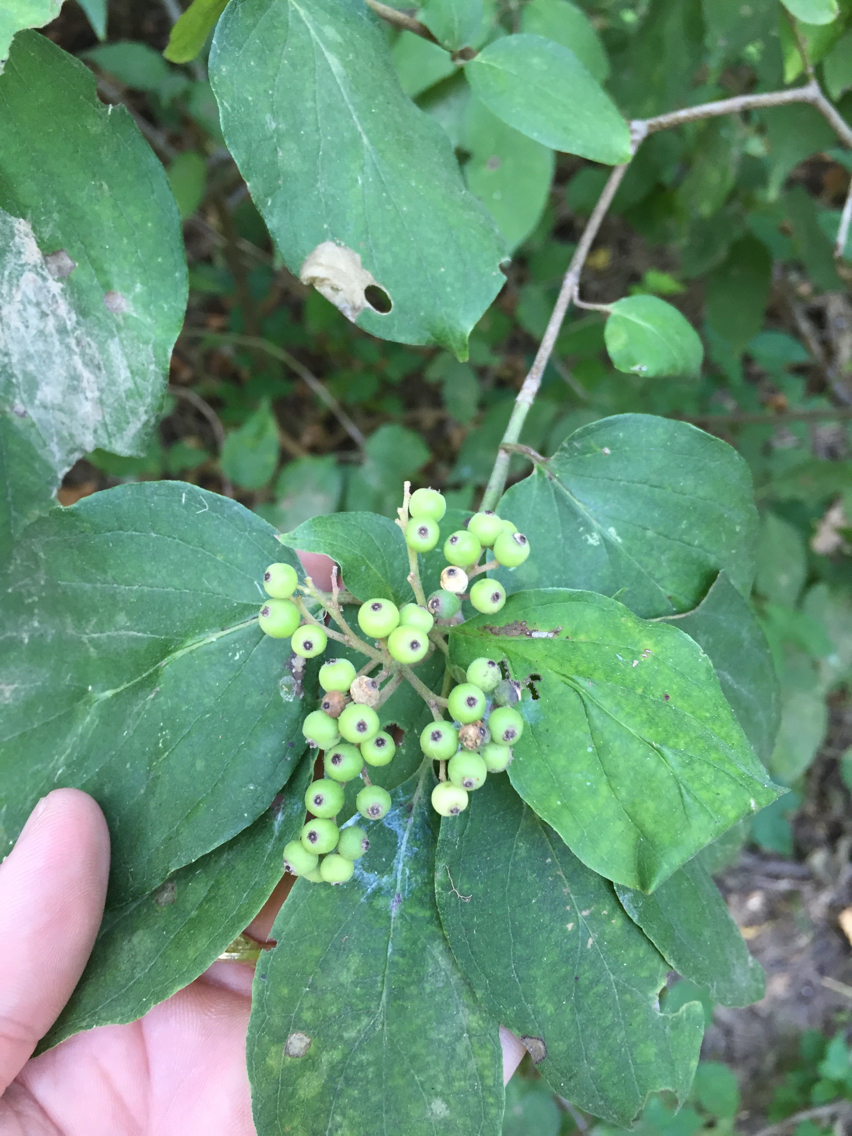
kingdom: Plantae
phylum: Tracheophyta
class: Magnoliopsida
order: Cornales
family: Cornaceae
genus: Cornus
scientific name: Cornus drummondii
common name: Rough-leaf dogwood
